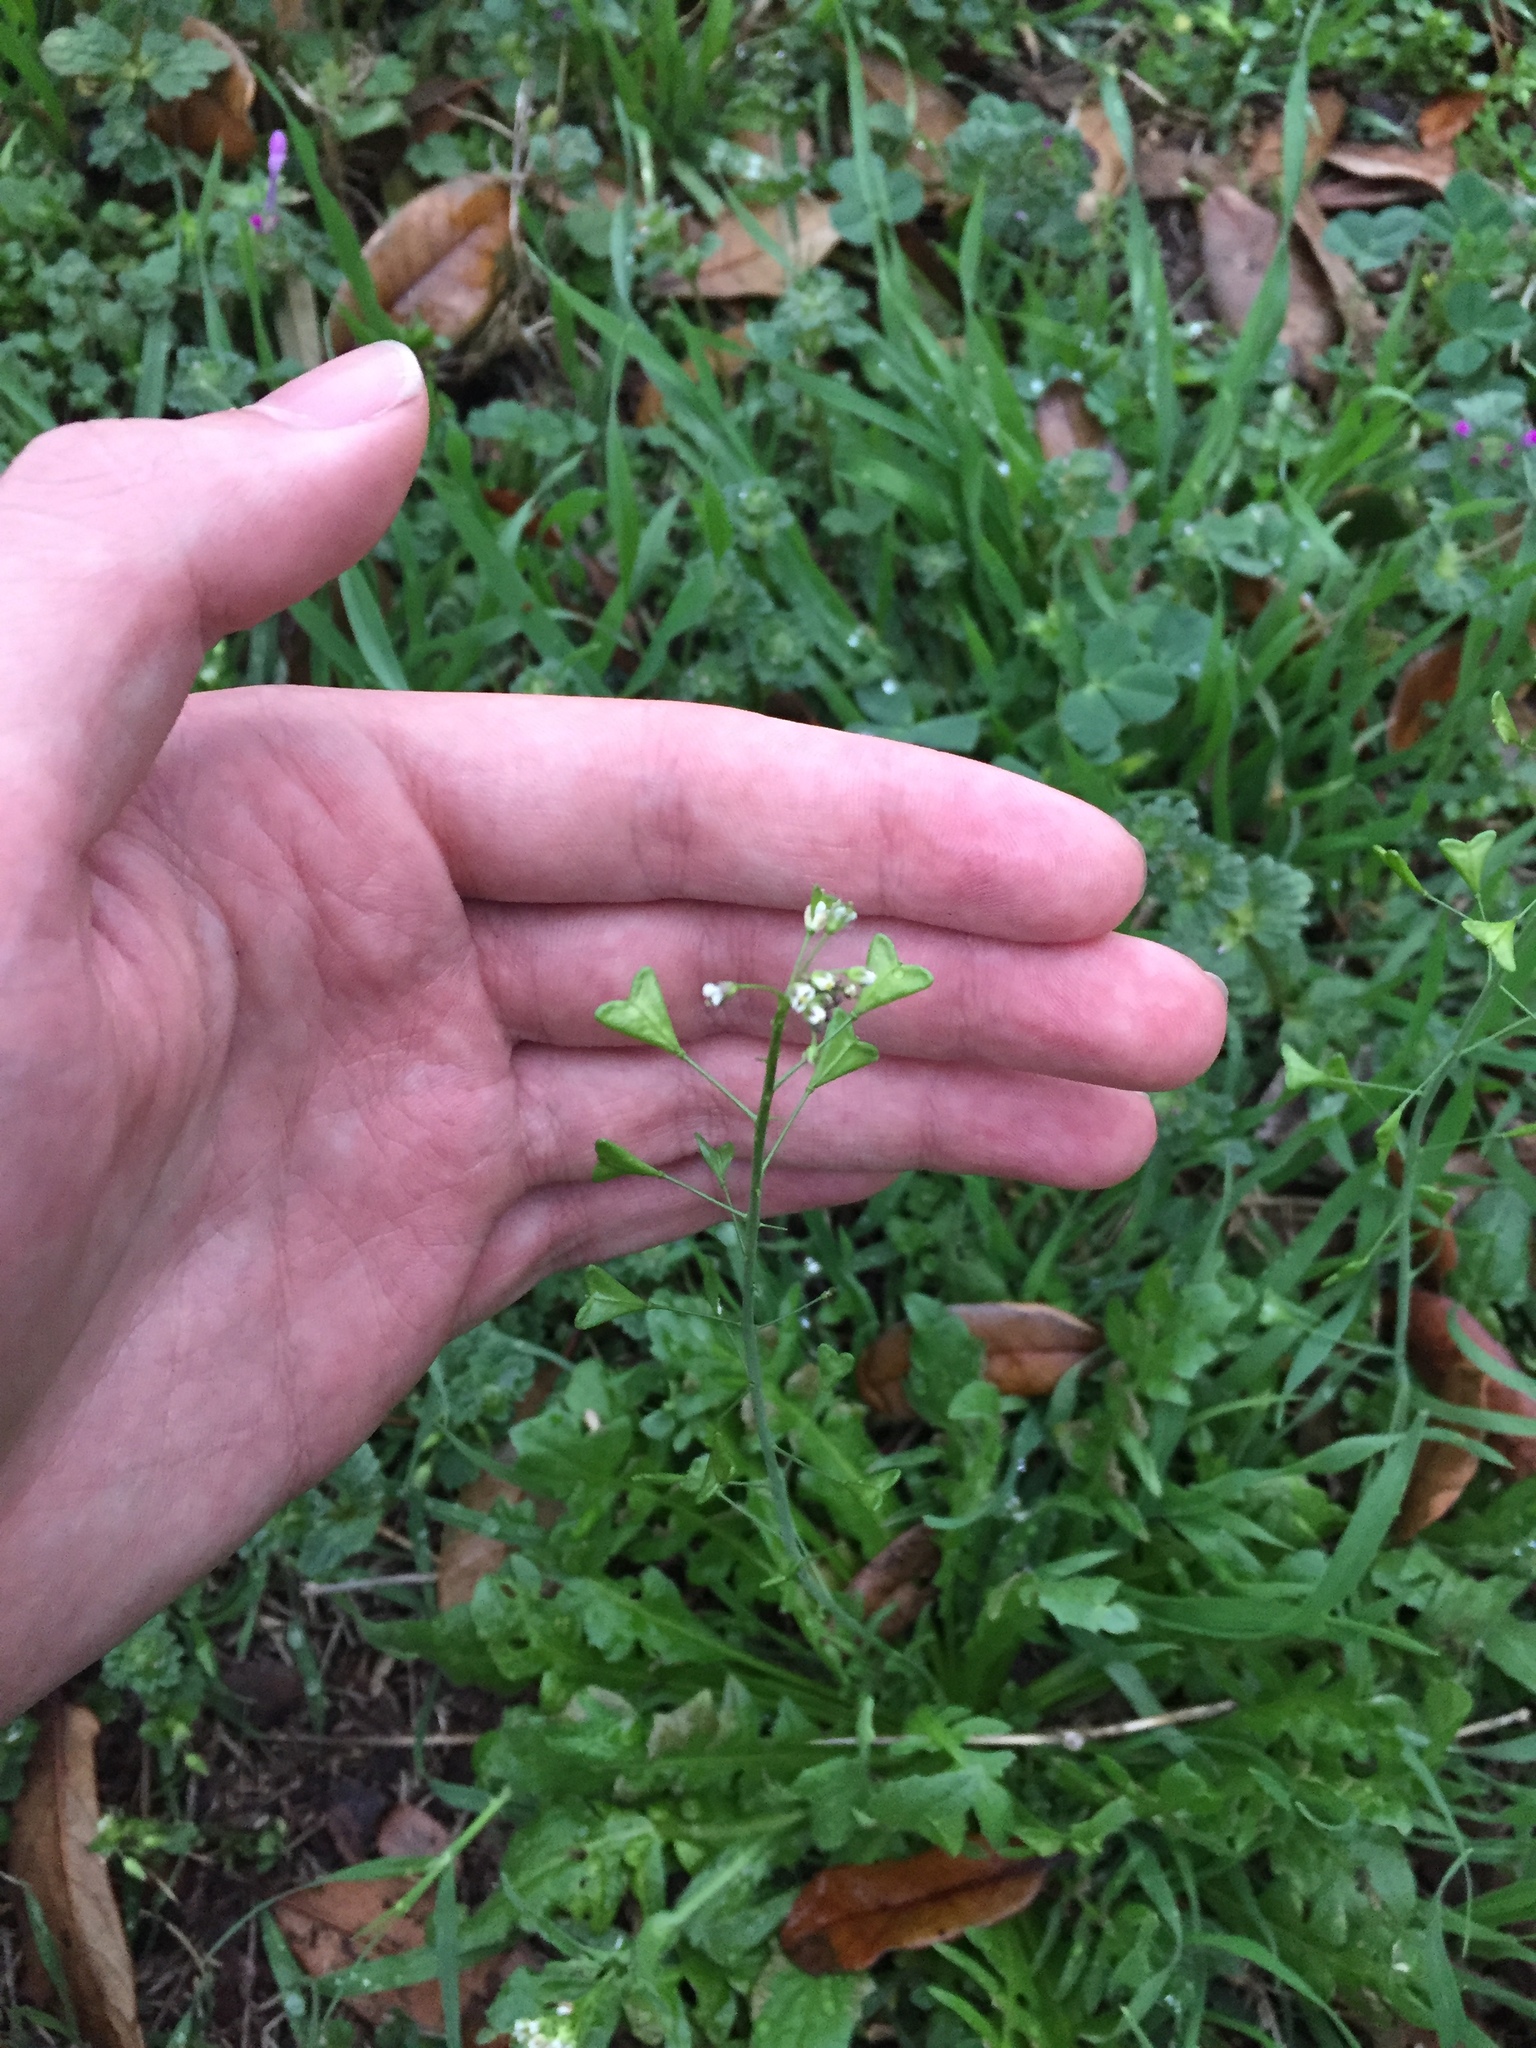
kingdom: Plantae
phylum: Tracheophyta
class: Magnoliopsida
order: Brassicales
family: Brassicaceae
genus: Capsella
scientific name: Capsella bursa-pastoris
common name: Shepherd's purse
